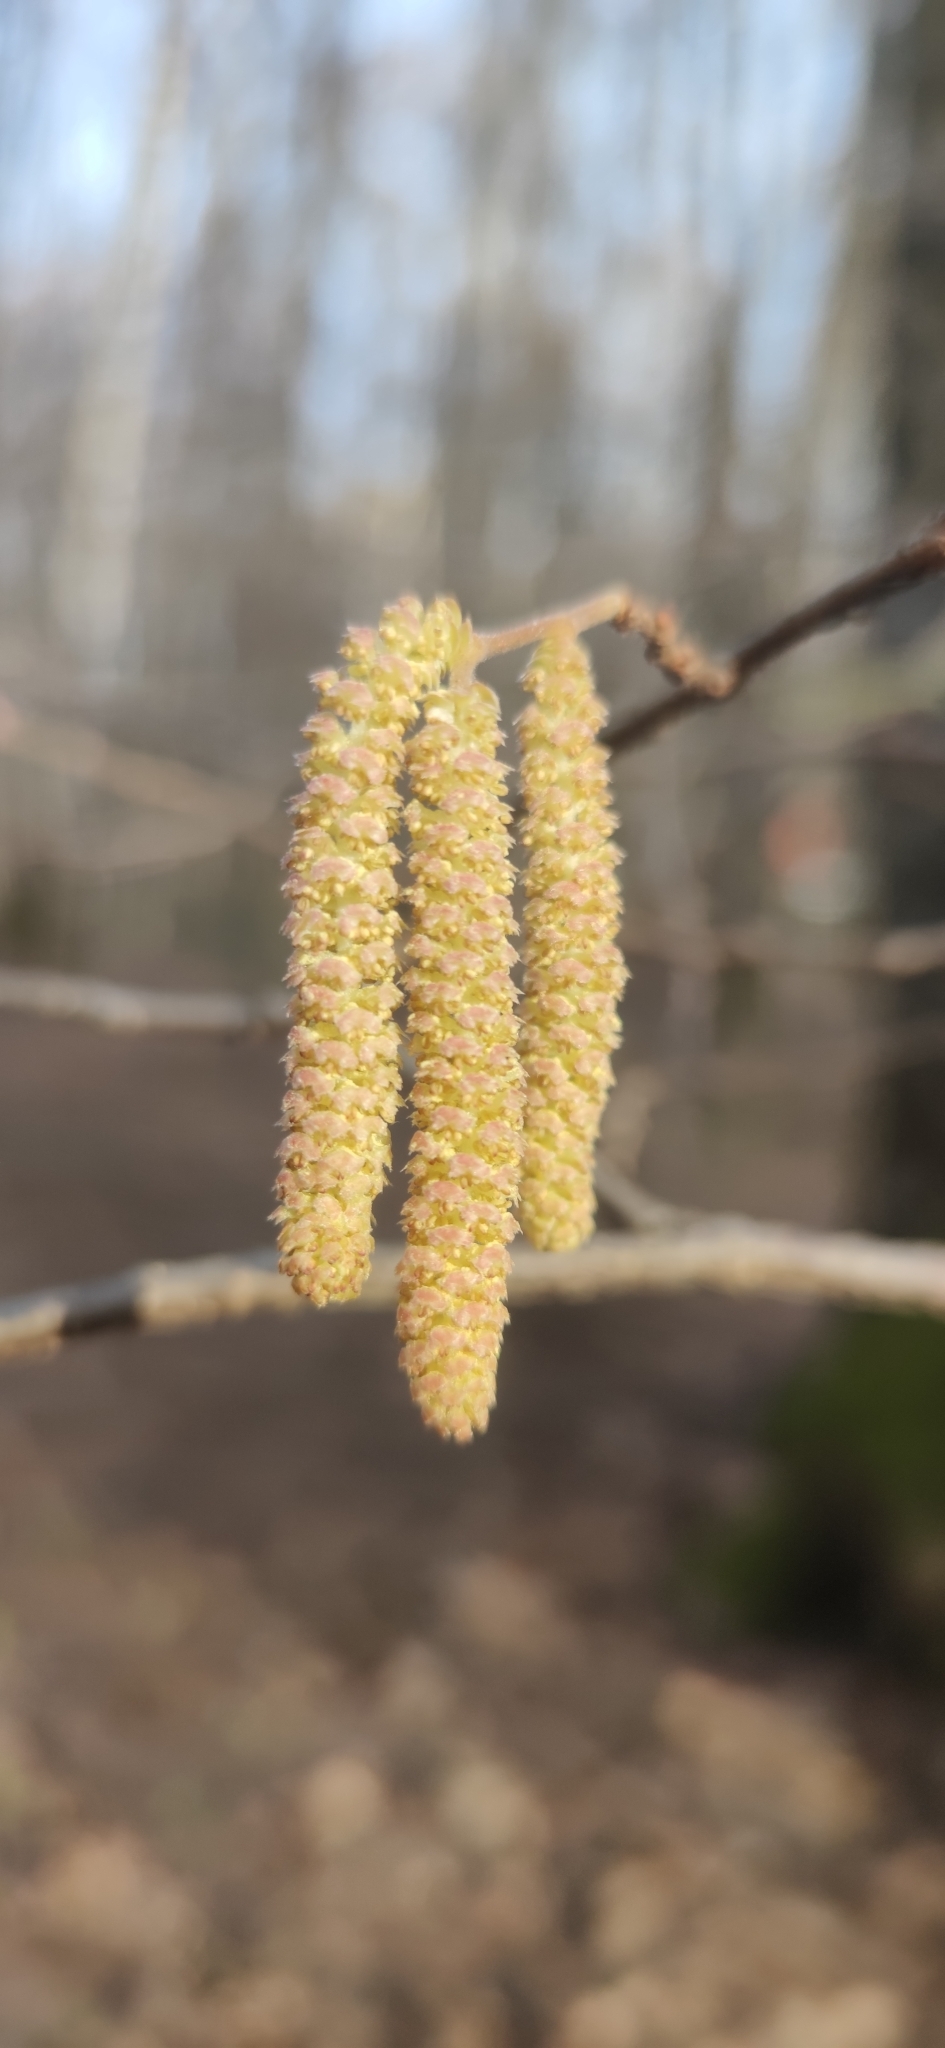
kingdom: Plantae
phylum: Tracheophyta
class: Magnoliopsida
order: Fagales
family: Betulaceae
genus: Corylus
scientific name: Corylus avellana
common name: European hazel
